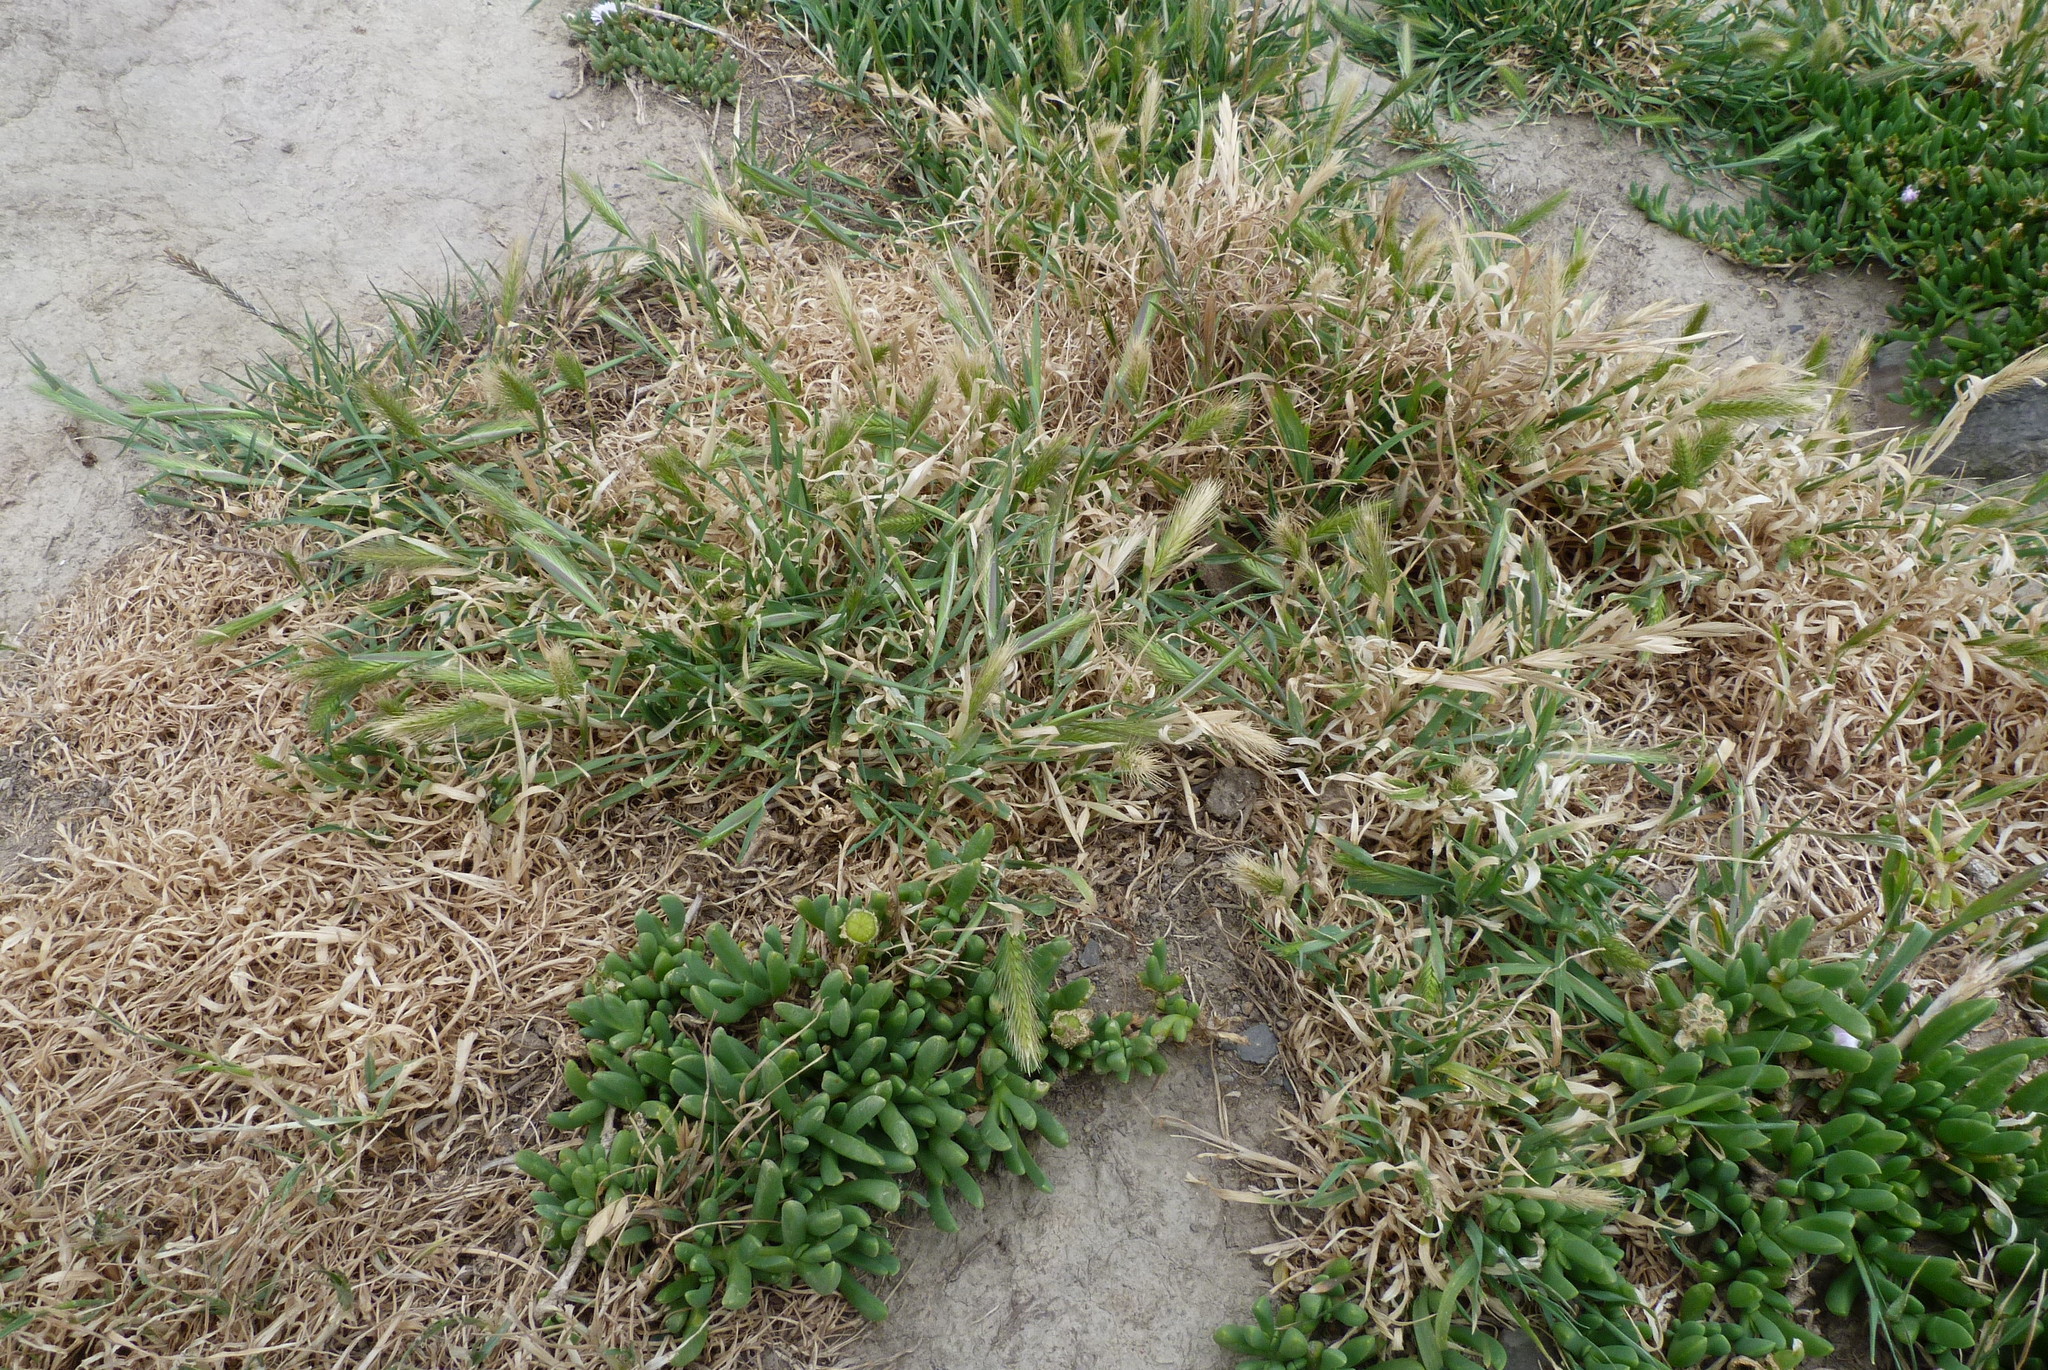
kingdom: Plantae
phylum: Tracheophyta
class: Liliopsida
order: Poales
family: Poaceae
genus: Hordeum
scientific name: Hordeum murinum
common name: Wall barley
